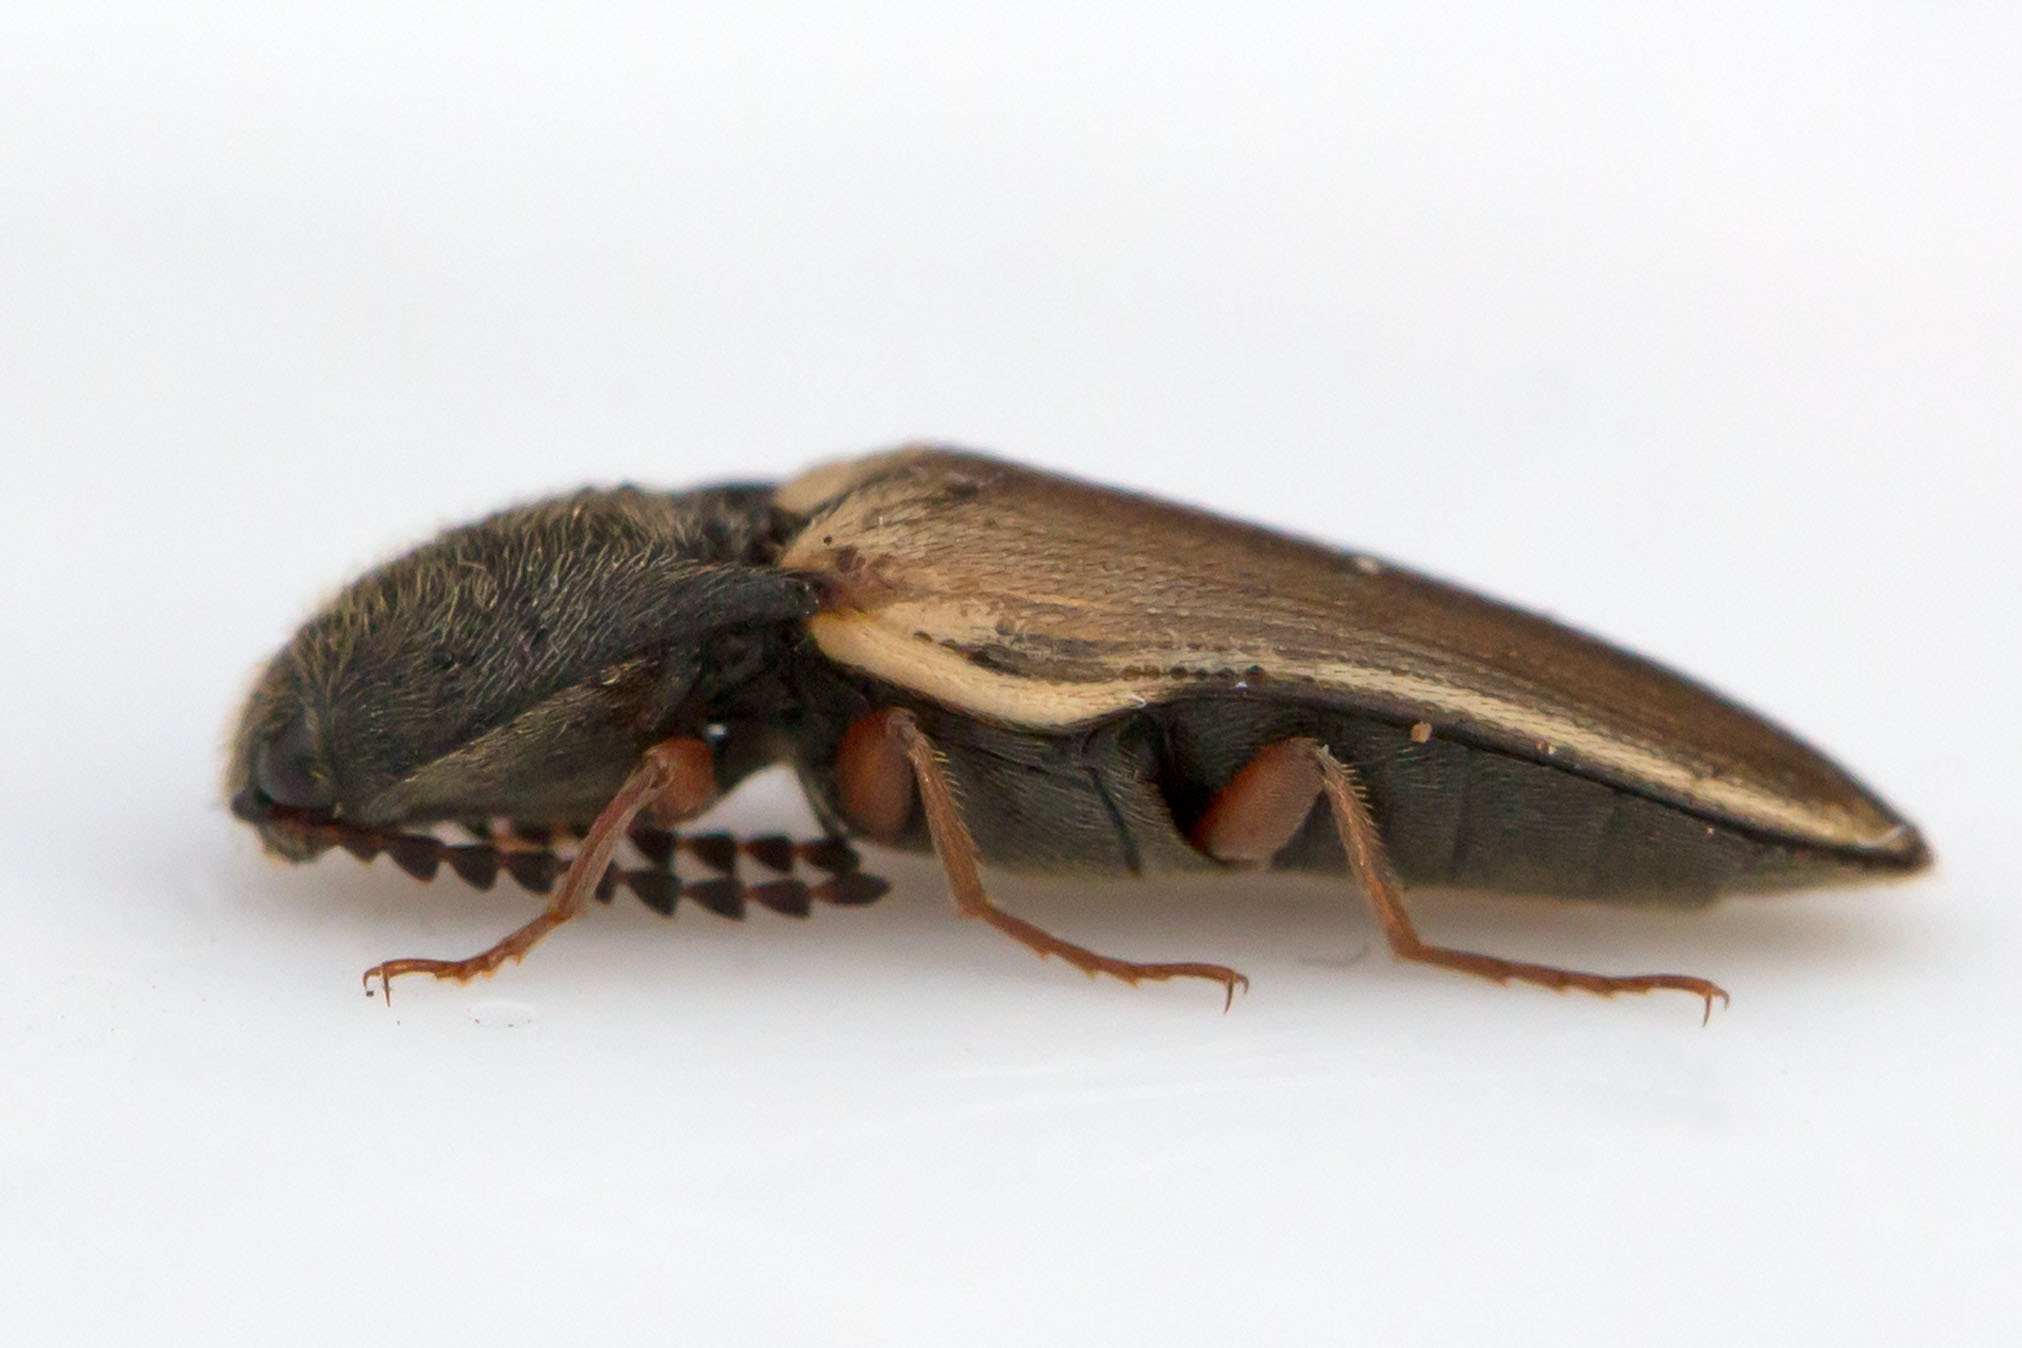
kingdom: Animalia
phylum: Arthropoda
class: Insecta
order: Coleoptera
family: Elateridae
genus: Ampedus
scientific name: Ampedus nigricollis
